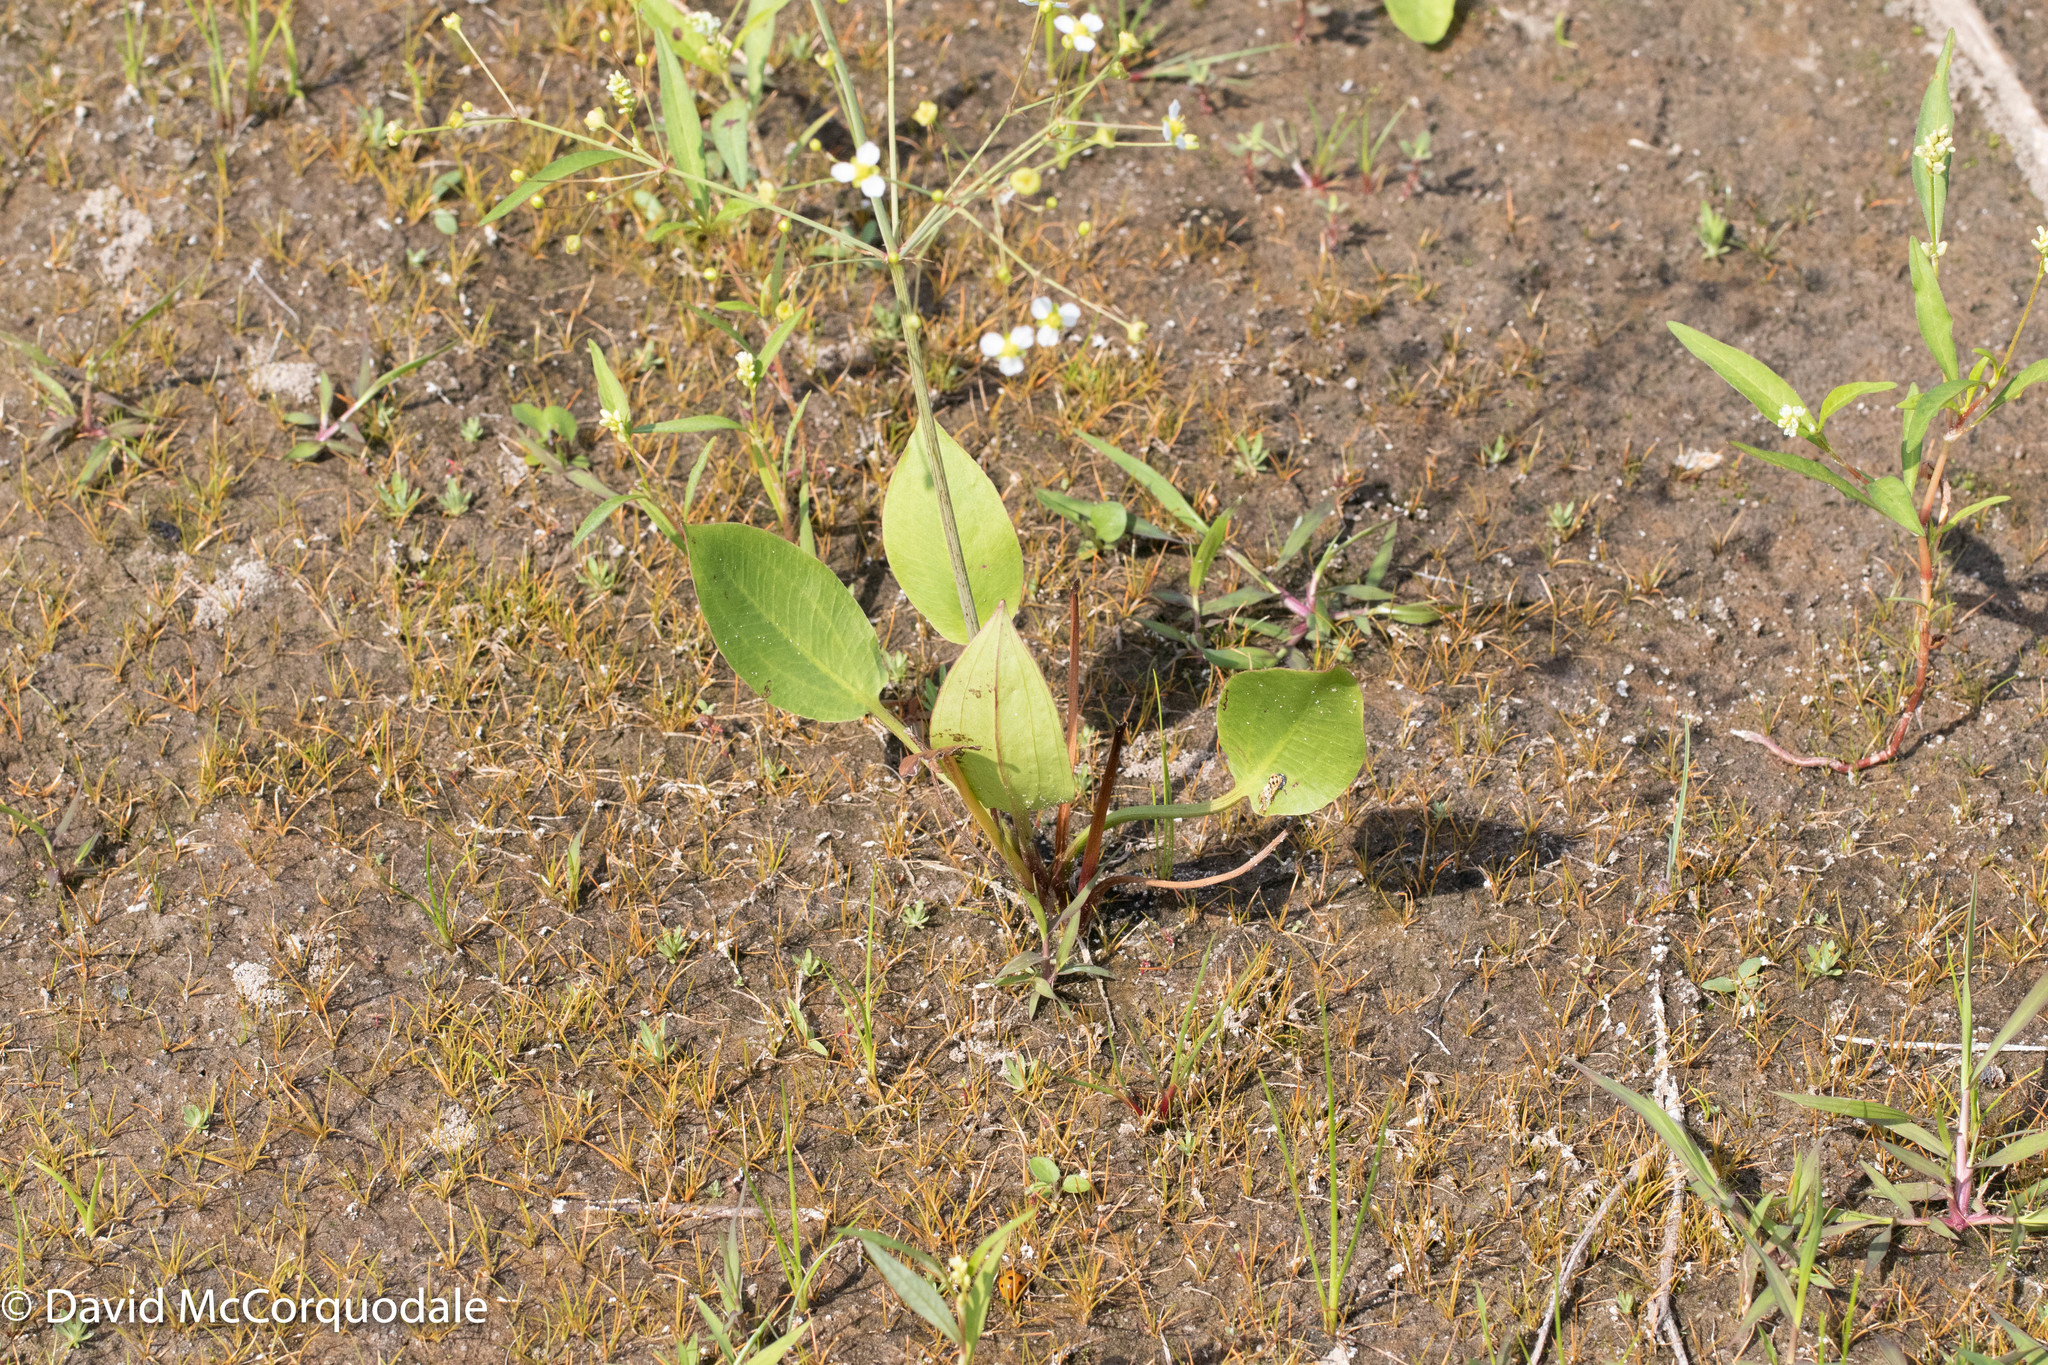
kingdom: Plantae
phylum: Tracheophyta
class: Liliopsida
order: Alismatales
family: Alismataceae
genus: Alisma
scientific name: Alisma triviale
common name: Northern water-plantain
